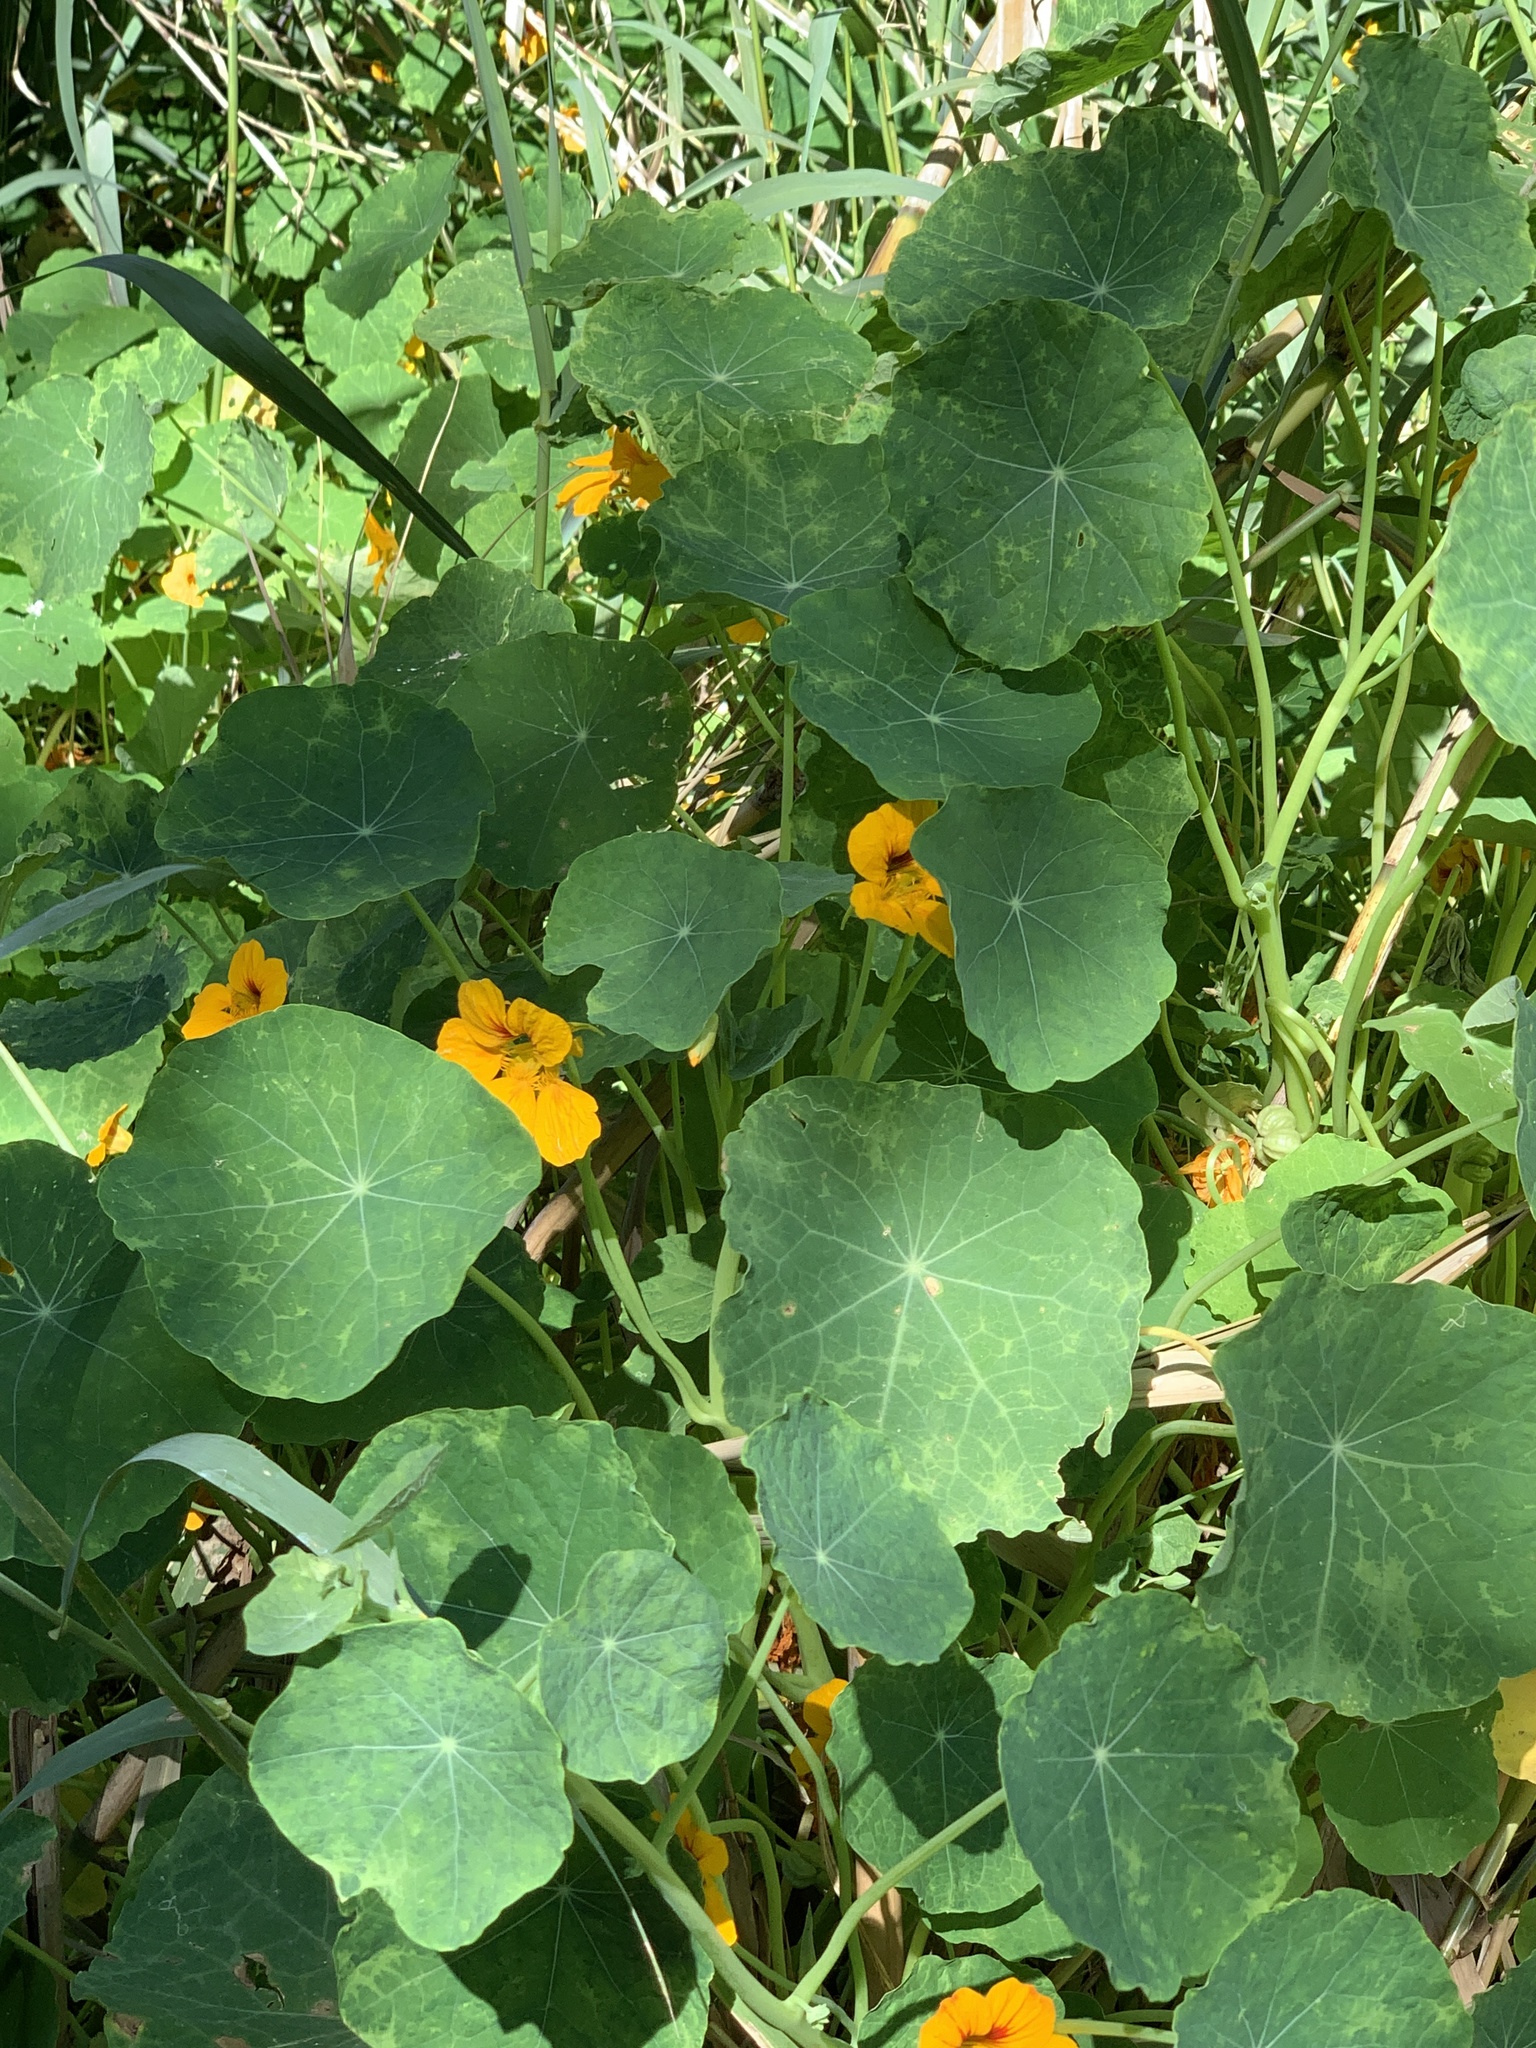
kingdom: Plantae
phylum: Tracheophyta
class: Magnoliopsida
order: Brassicales
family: Tropaeolaceae
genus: Tropaeolum
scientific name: Tropaeolum majus
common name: Nasturtium
